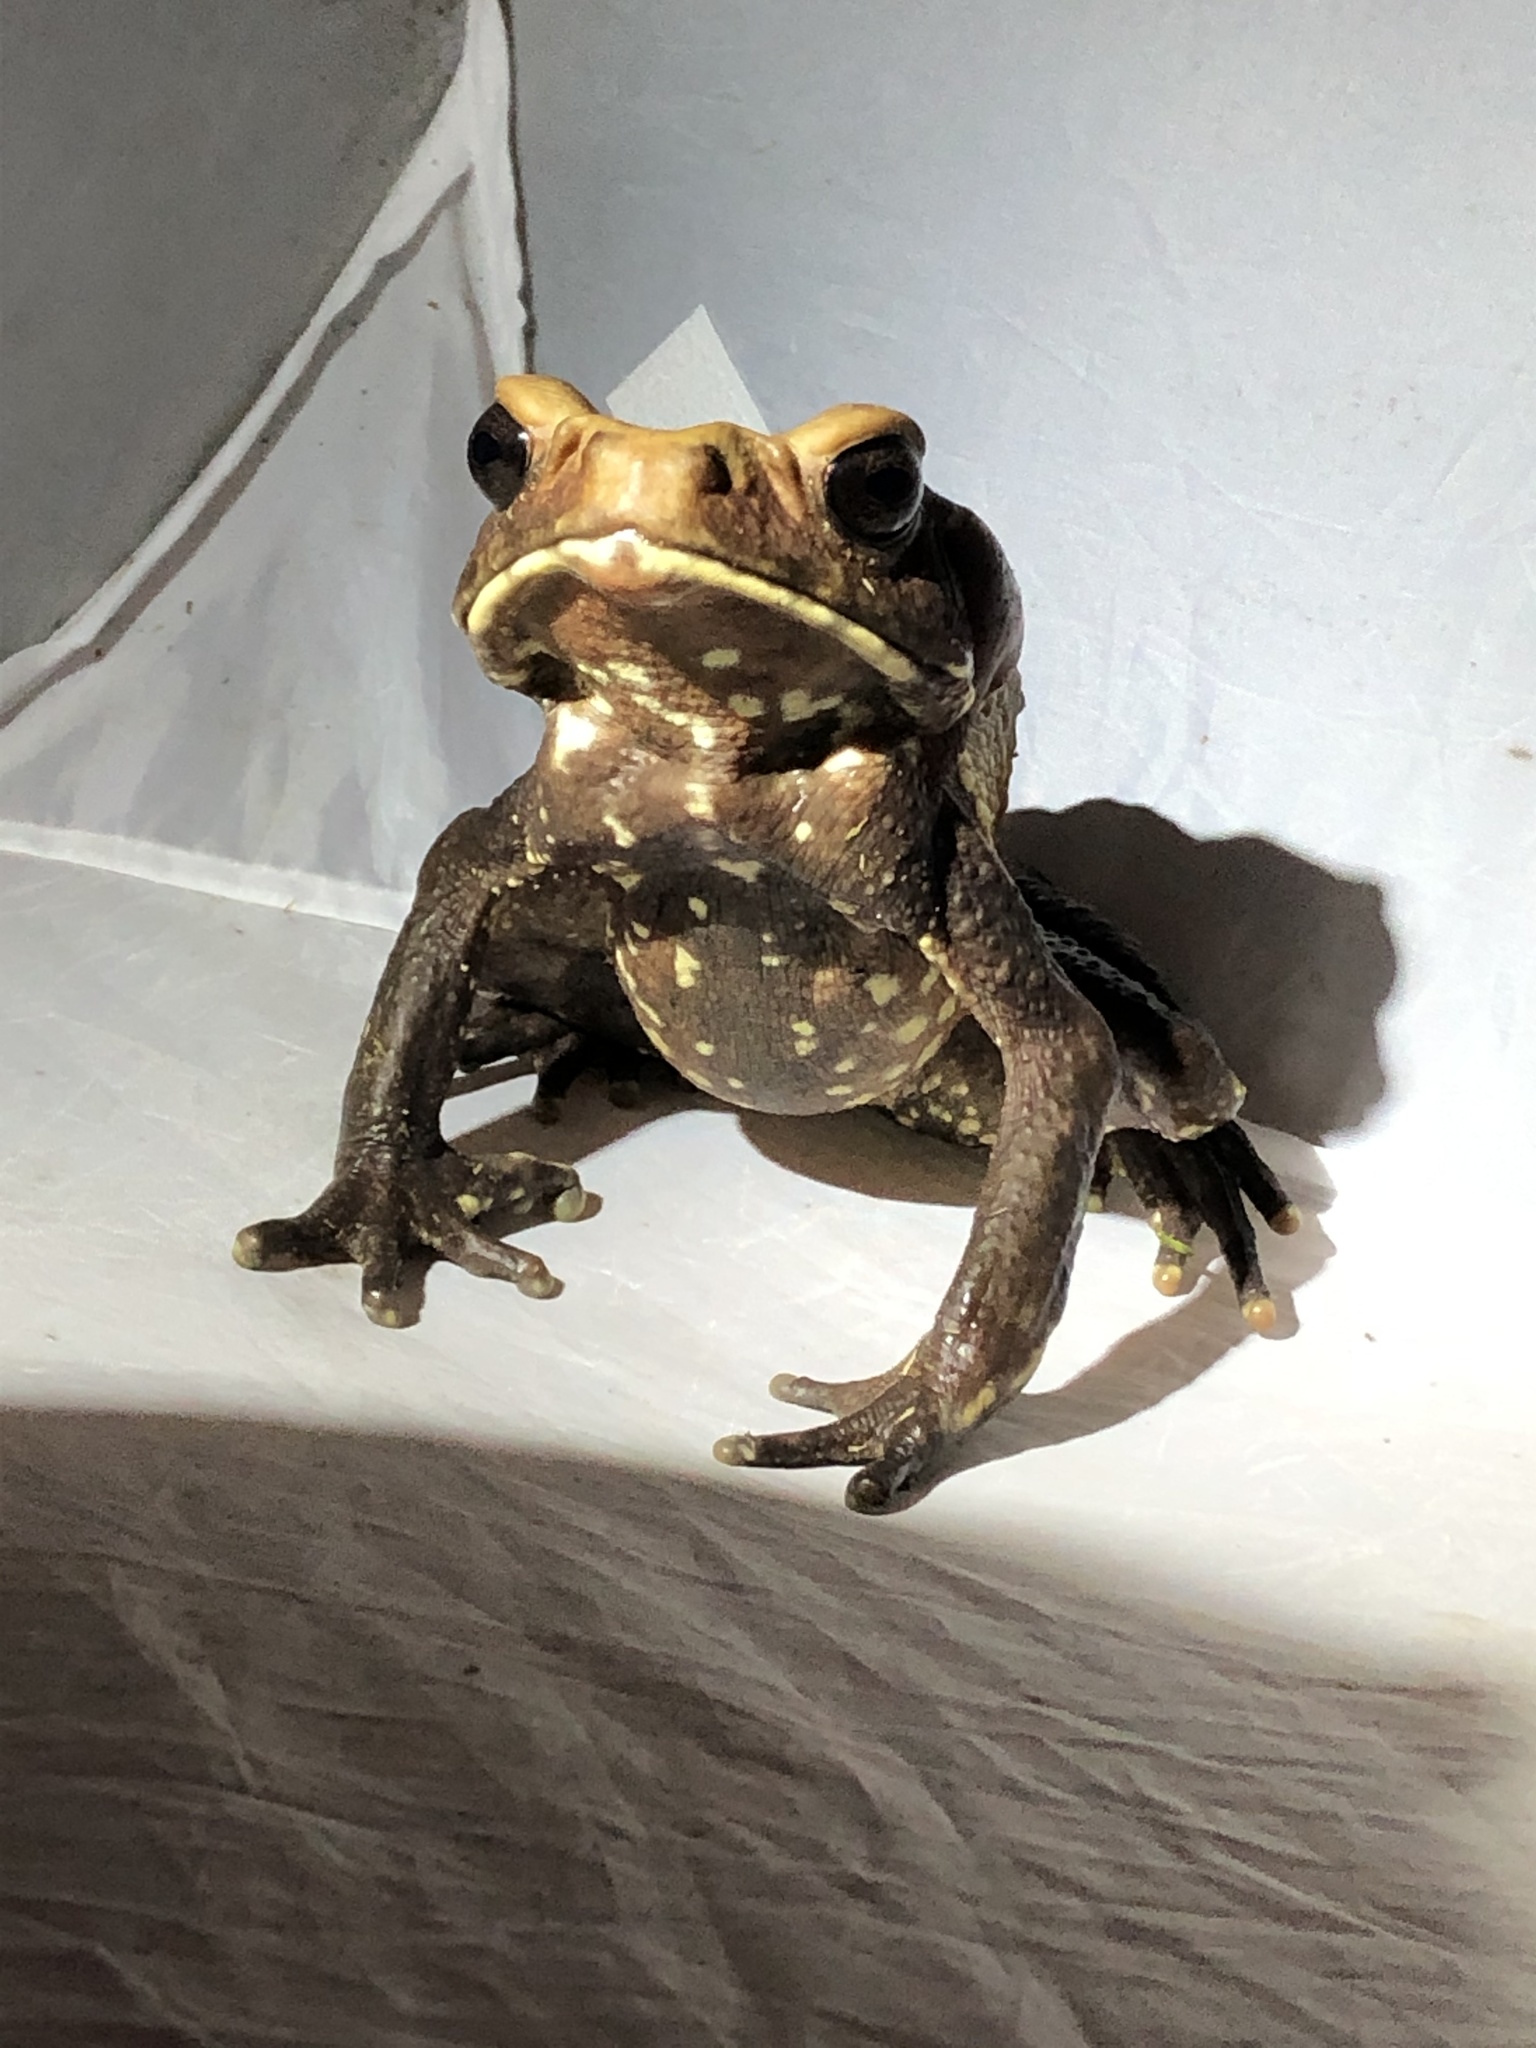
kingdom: Animalia
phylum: Chordata
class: Amphibia
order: Anura
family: Bufonidae
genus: Rhaebo
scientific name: Rhaebo guttatus
